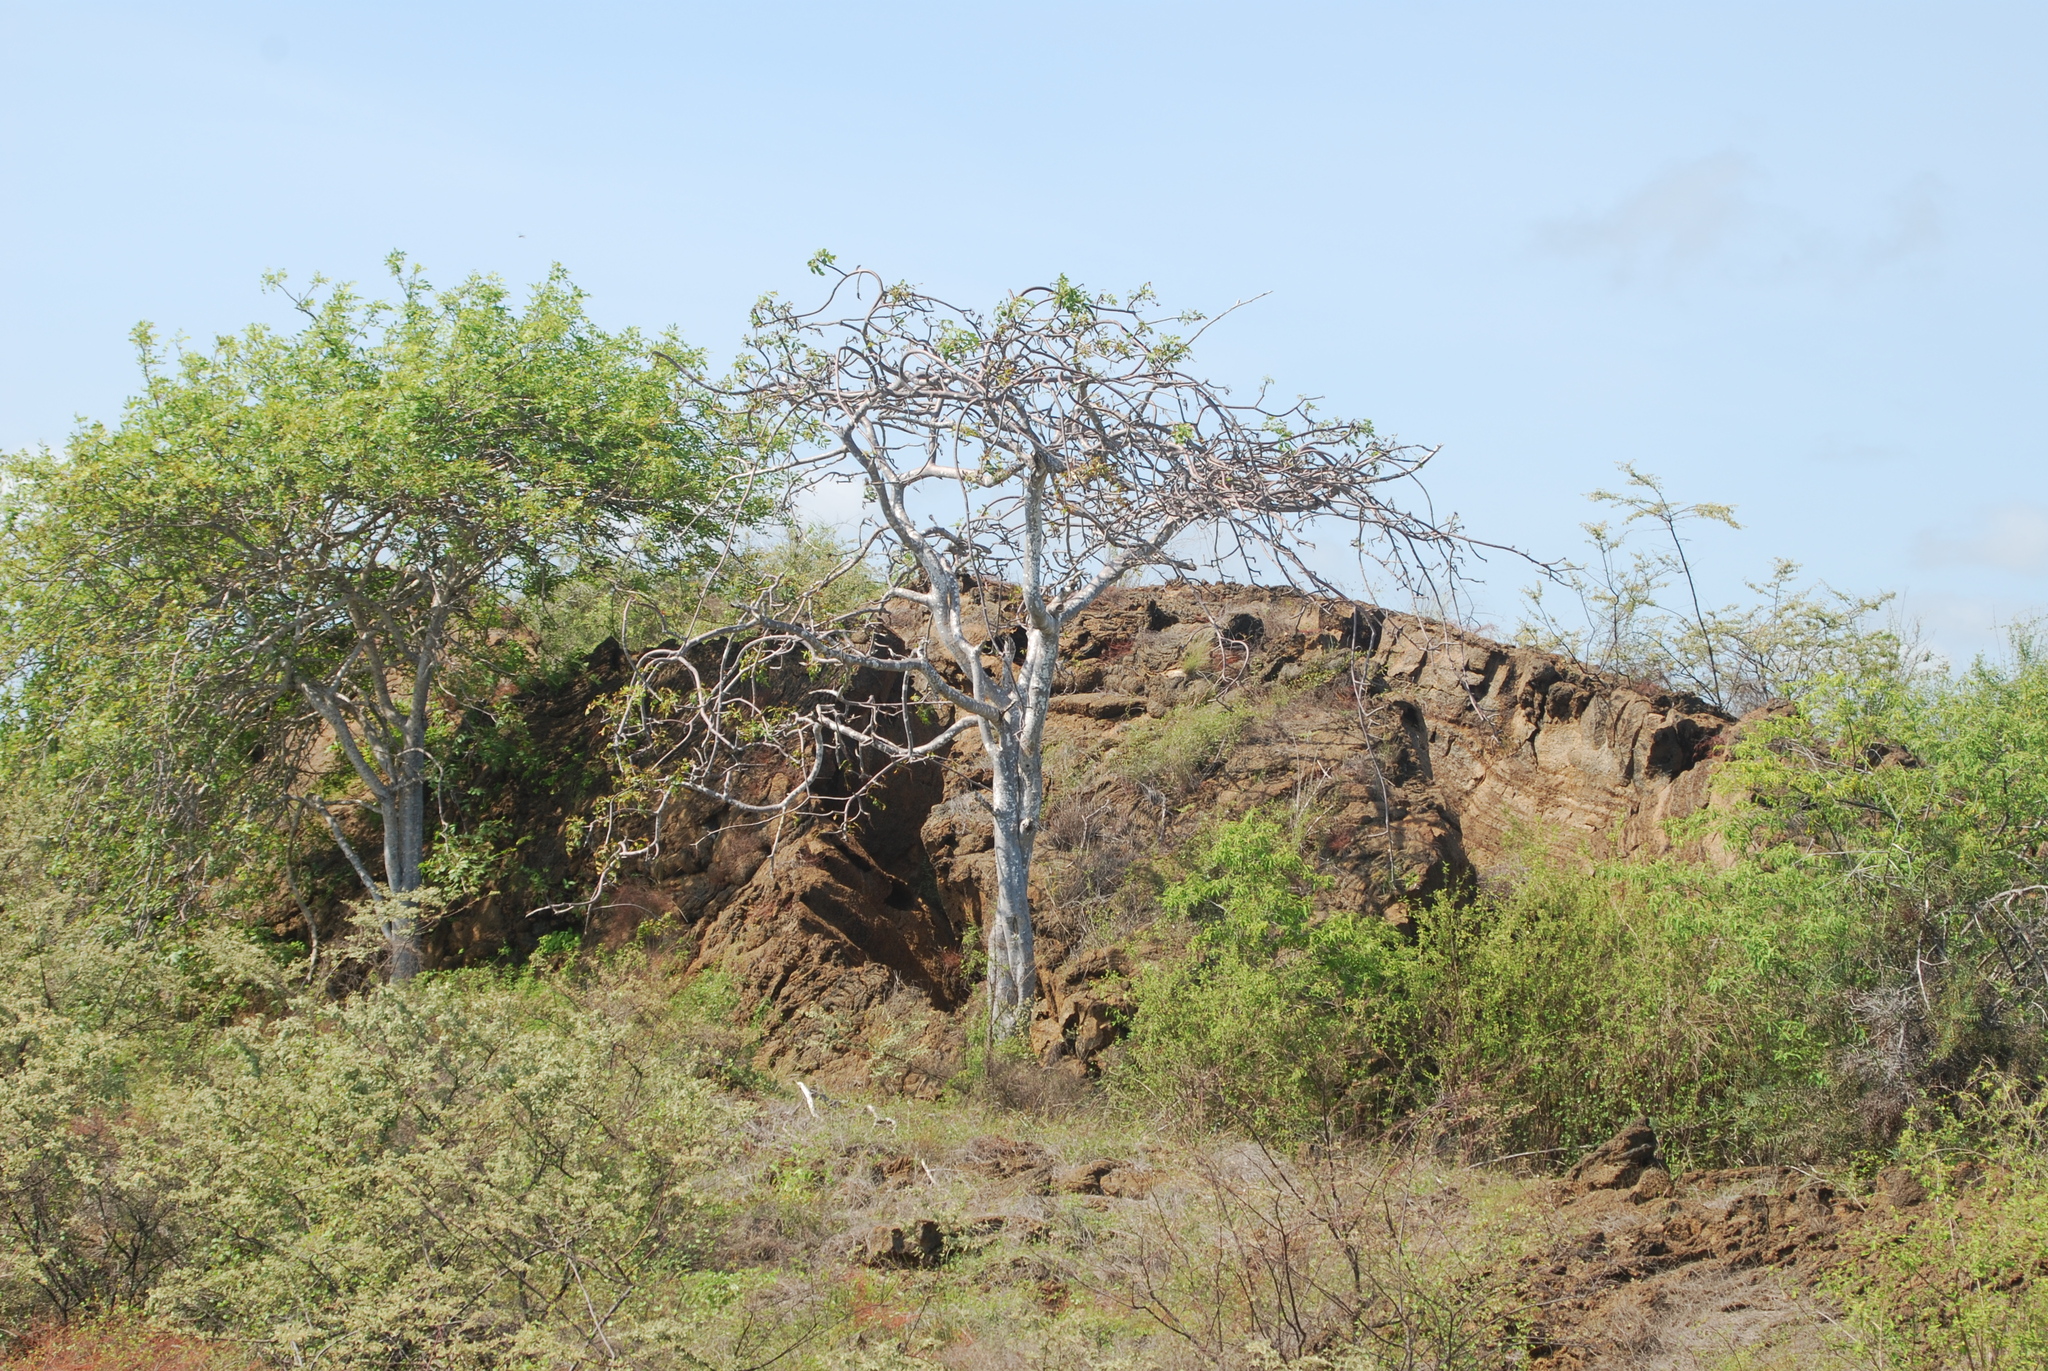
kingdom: Plantae
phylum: Tracheophyta
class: Magnoliopsida
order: Sapindales
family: Burseraceae
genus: Bursera
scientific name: Bursera graveolens
